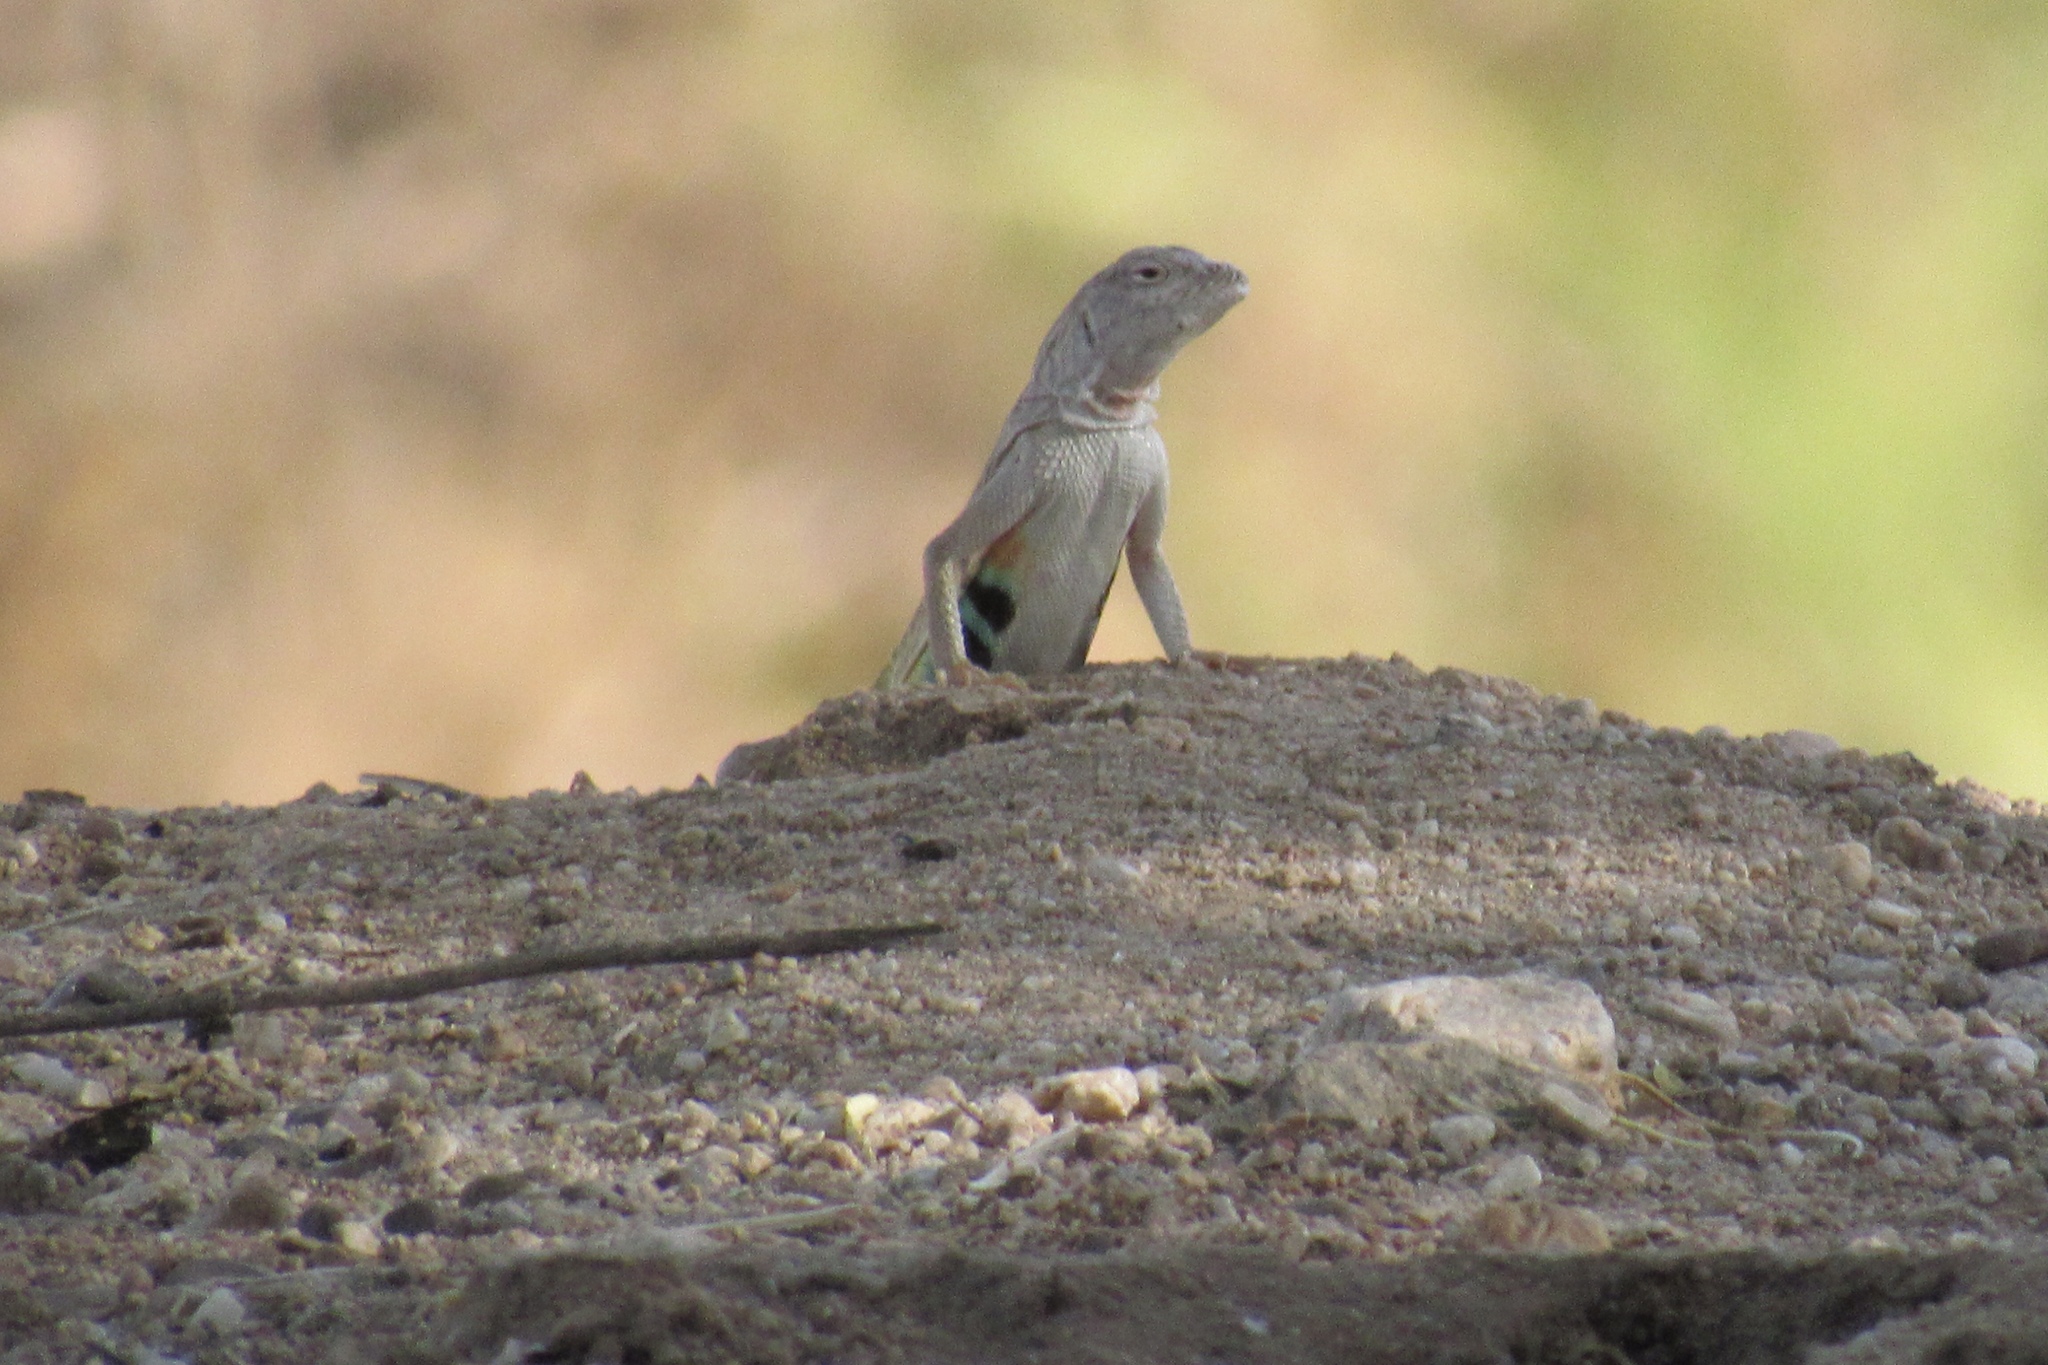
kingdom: Animalia
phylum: Chordata
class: Squamata
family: Phrynosomatidae
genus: Callisaurus
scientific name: Callisaurus draconoides
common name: Zebra-tailed lizard
